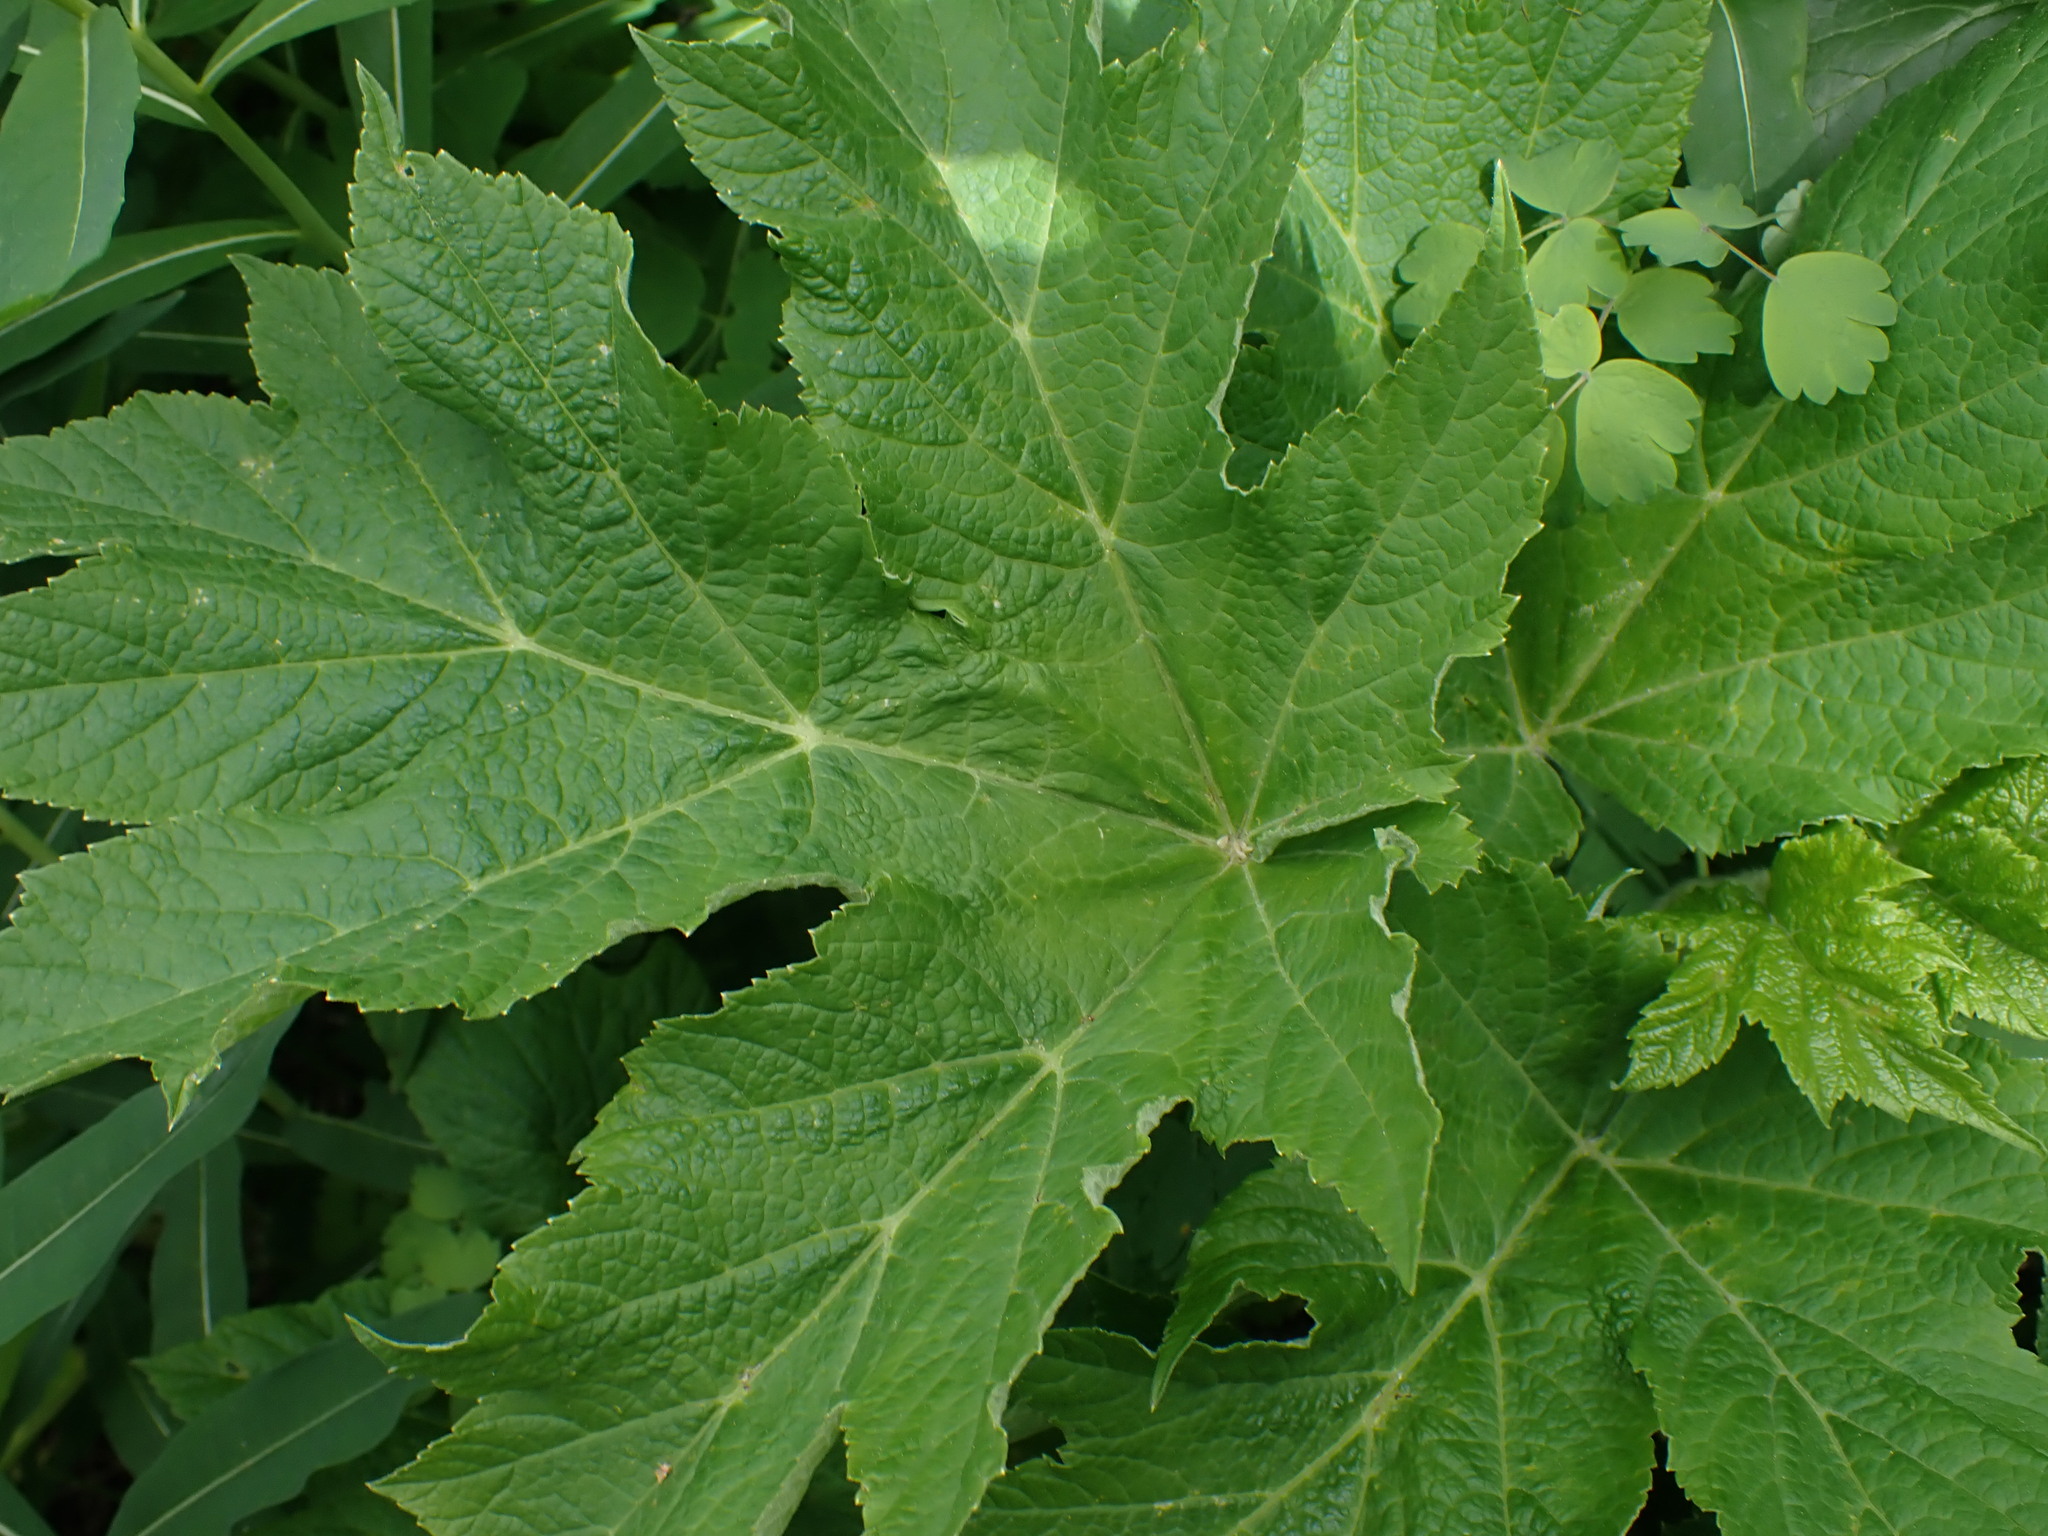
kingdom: Plantae
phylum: Tracheophyta
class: Magnoliopsida
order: Apiales
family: Apiaceae
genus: Heracleum
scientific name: Heracleum maximum
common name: American cow parsnip
